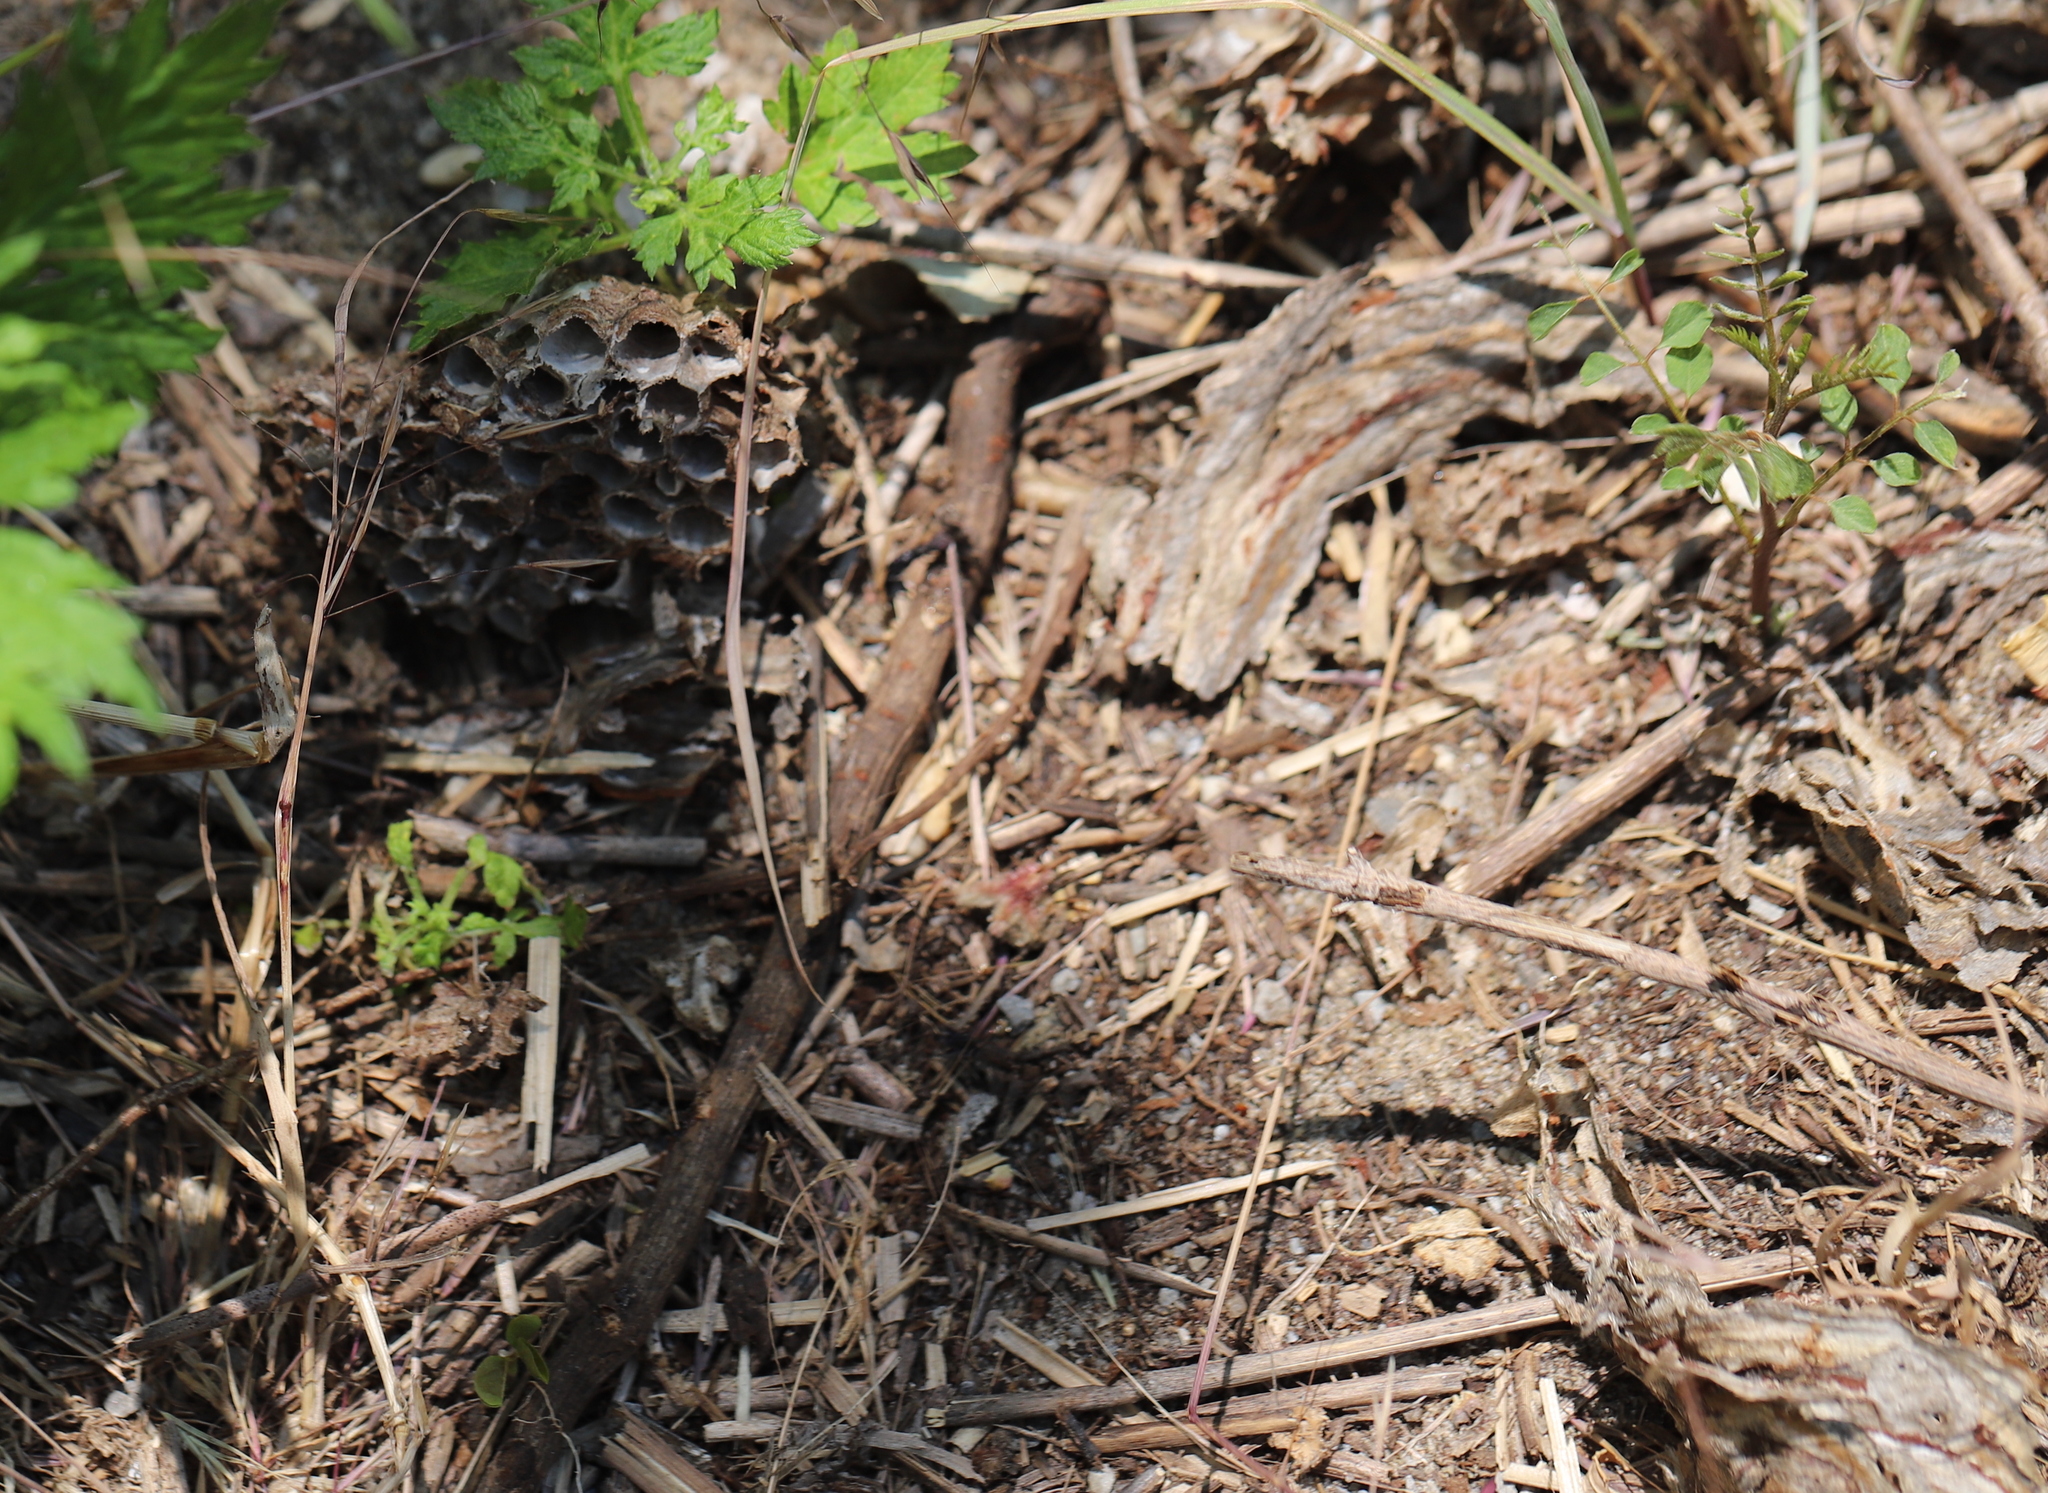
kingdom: Animalia
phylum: Arthropoda
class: Insecta
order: Hymenoptera
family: Vespidae
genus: Dolichovespula
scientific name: Dolichovespula maculata
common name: Bald-faced hornet
